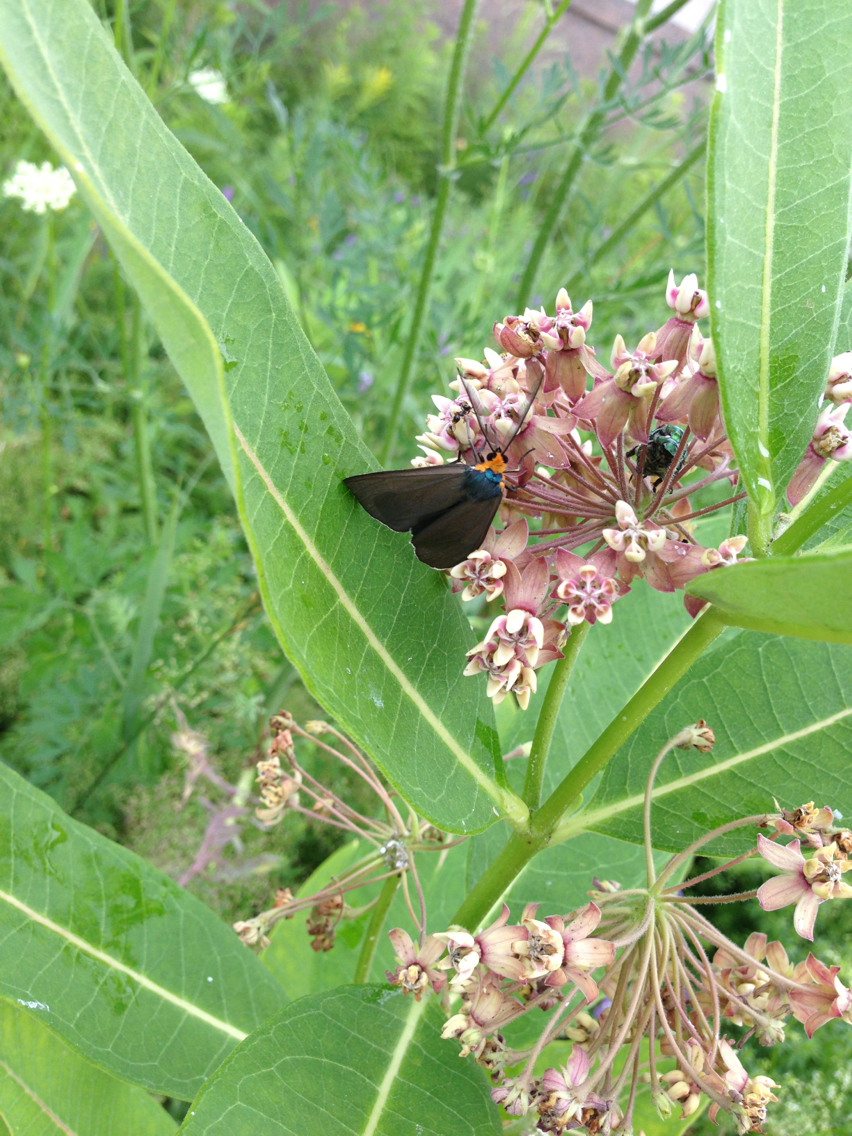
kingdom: Animalia
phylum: Arthropoda
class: Insecta
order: Lepidoptera
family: Erebidae
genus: Ctenucha
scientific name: Ctenucha virginica
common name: Virginia ctenucha moth
